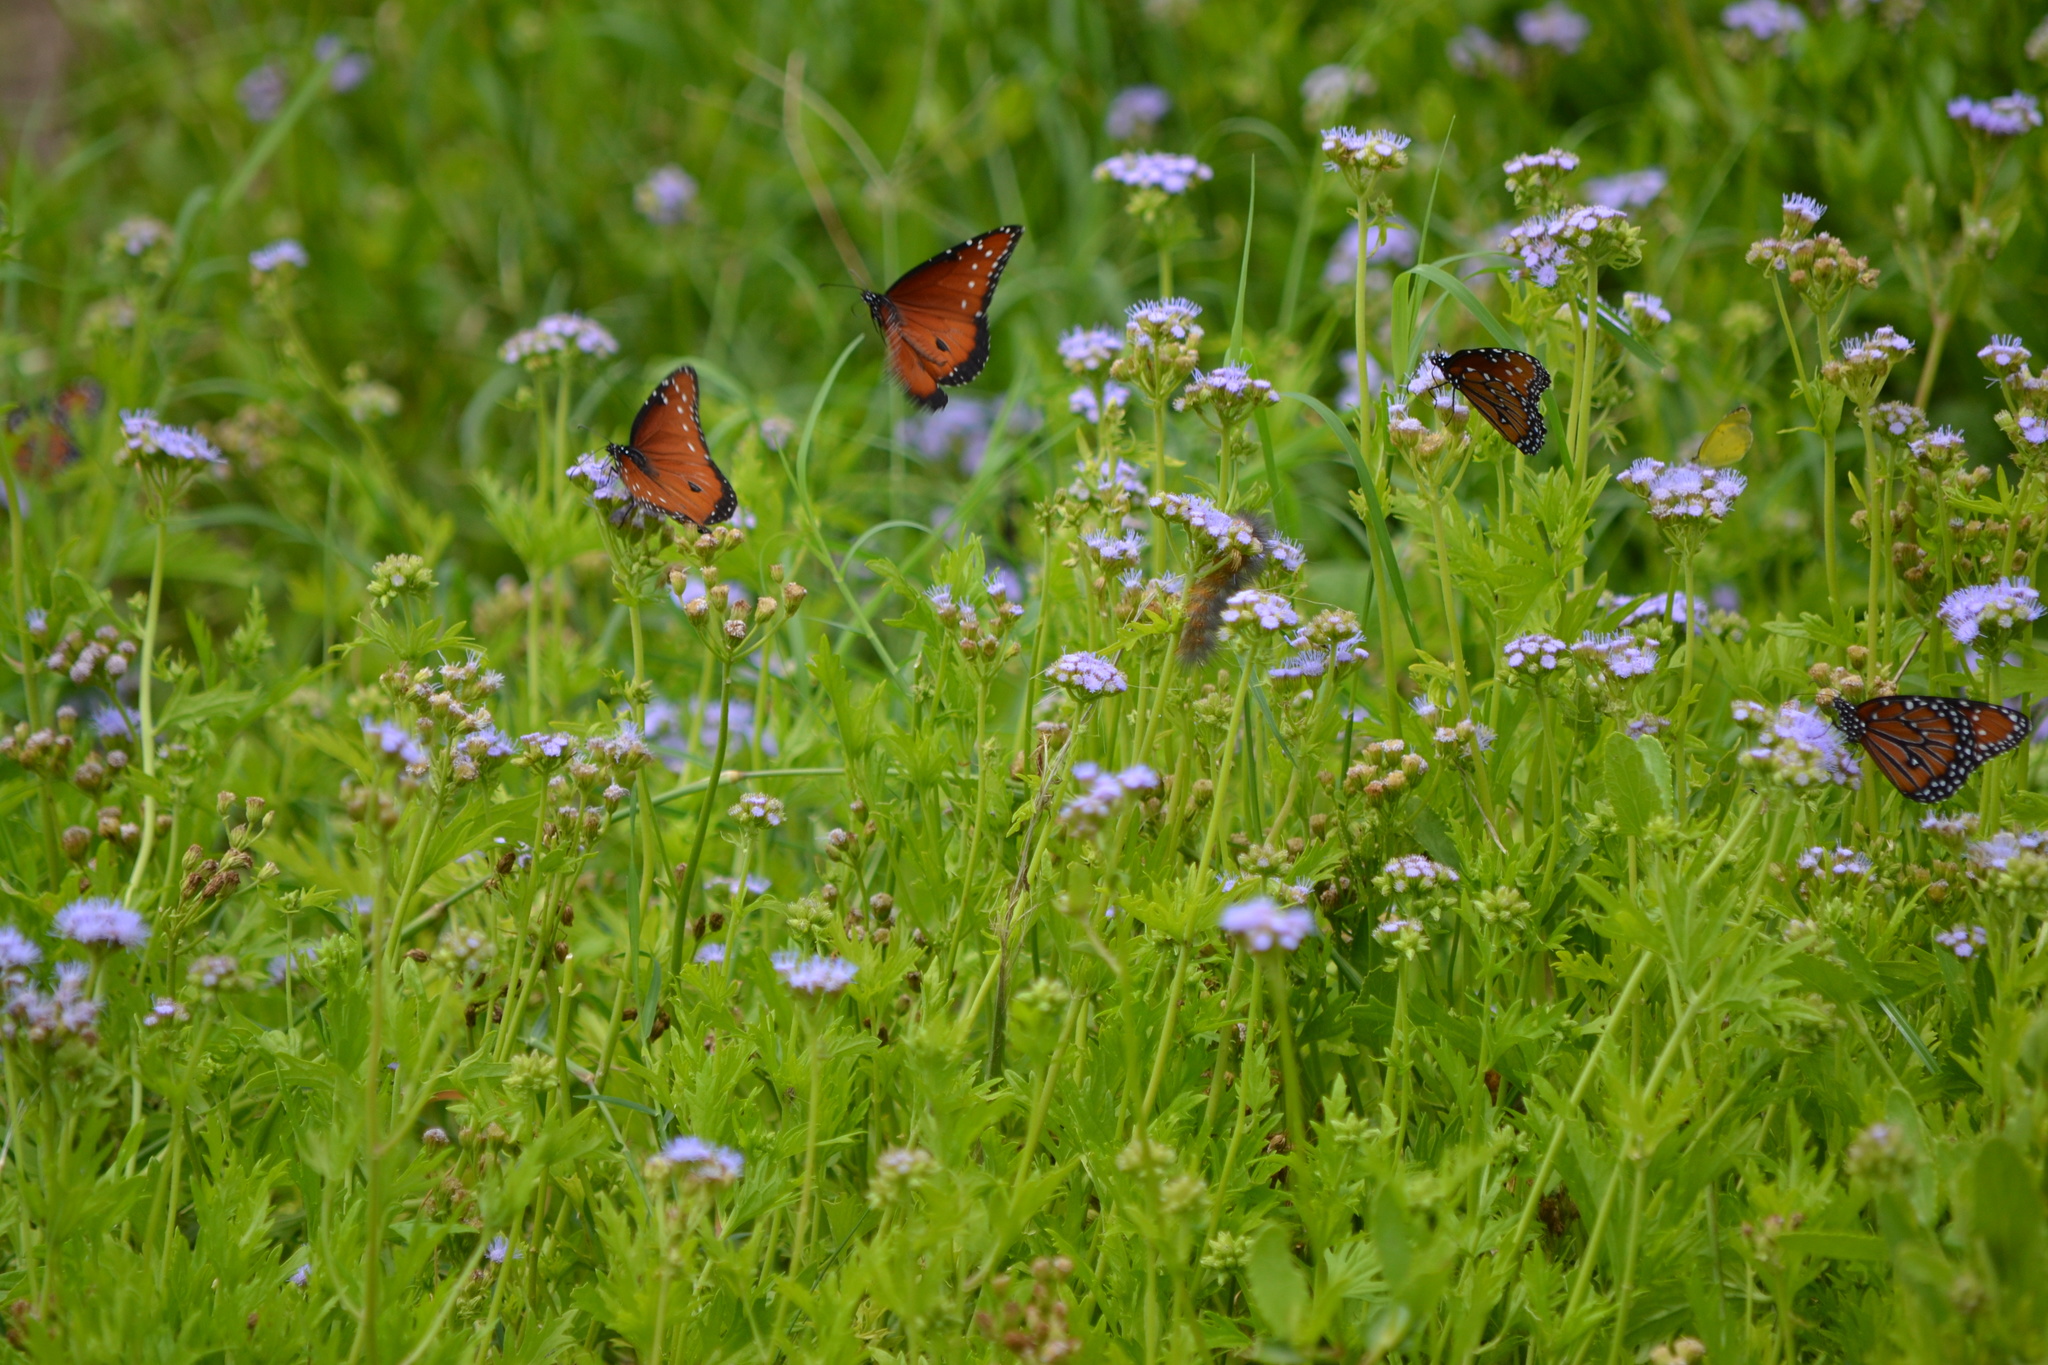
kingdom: Animalia
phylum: Arthropoda
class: Insecta
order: Lepidoptera
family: Nymphalidae
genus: Danaus
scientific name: Danaus gilippus
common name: Queen
